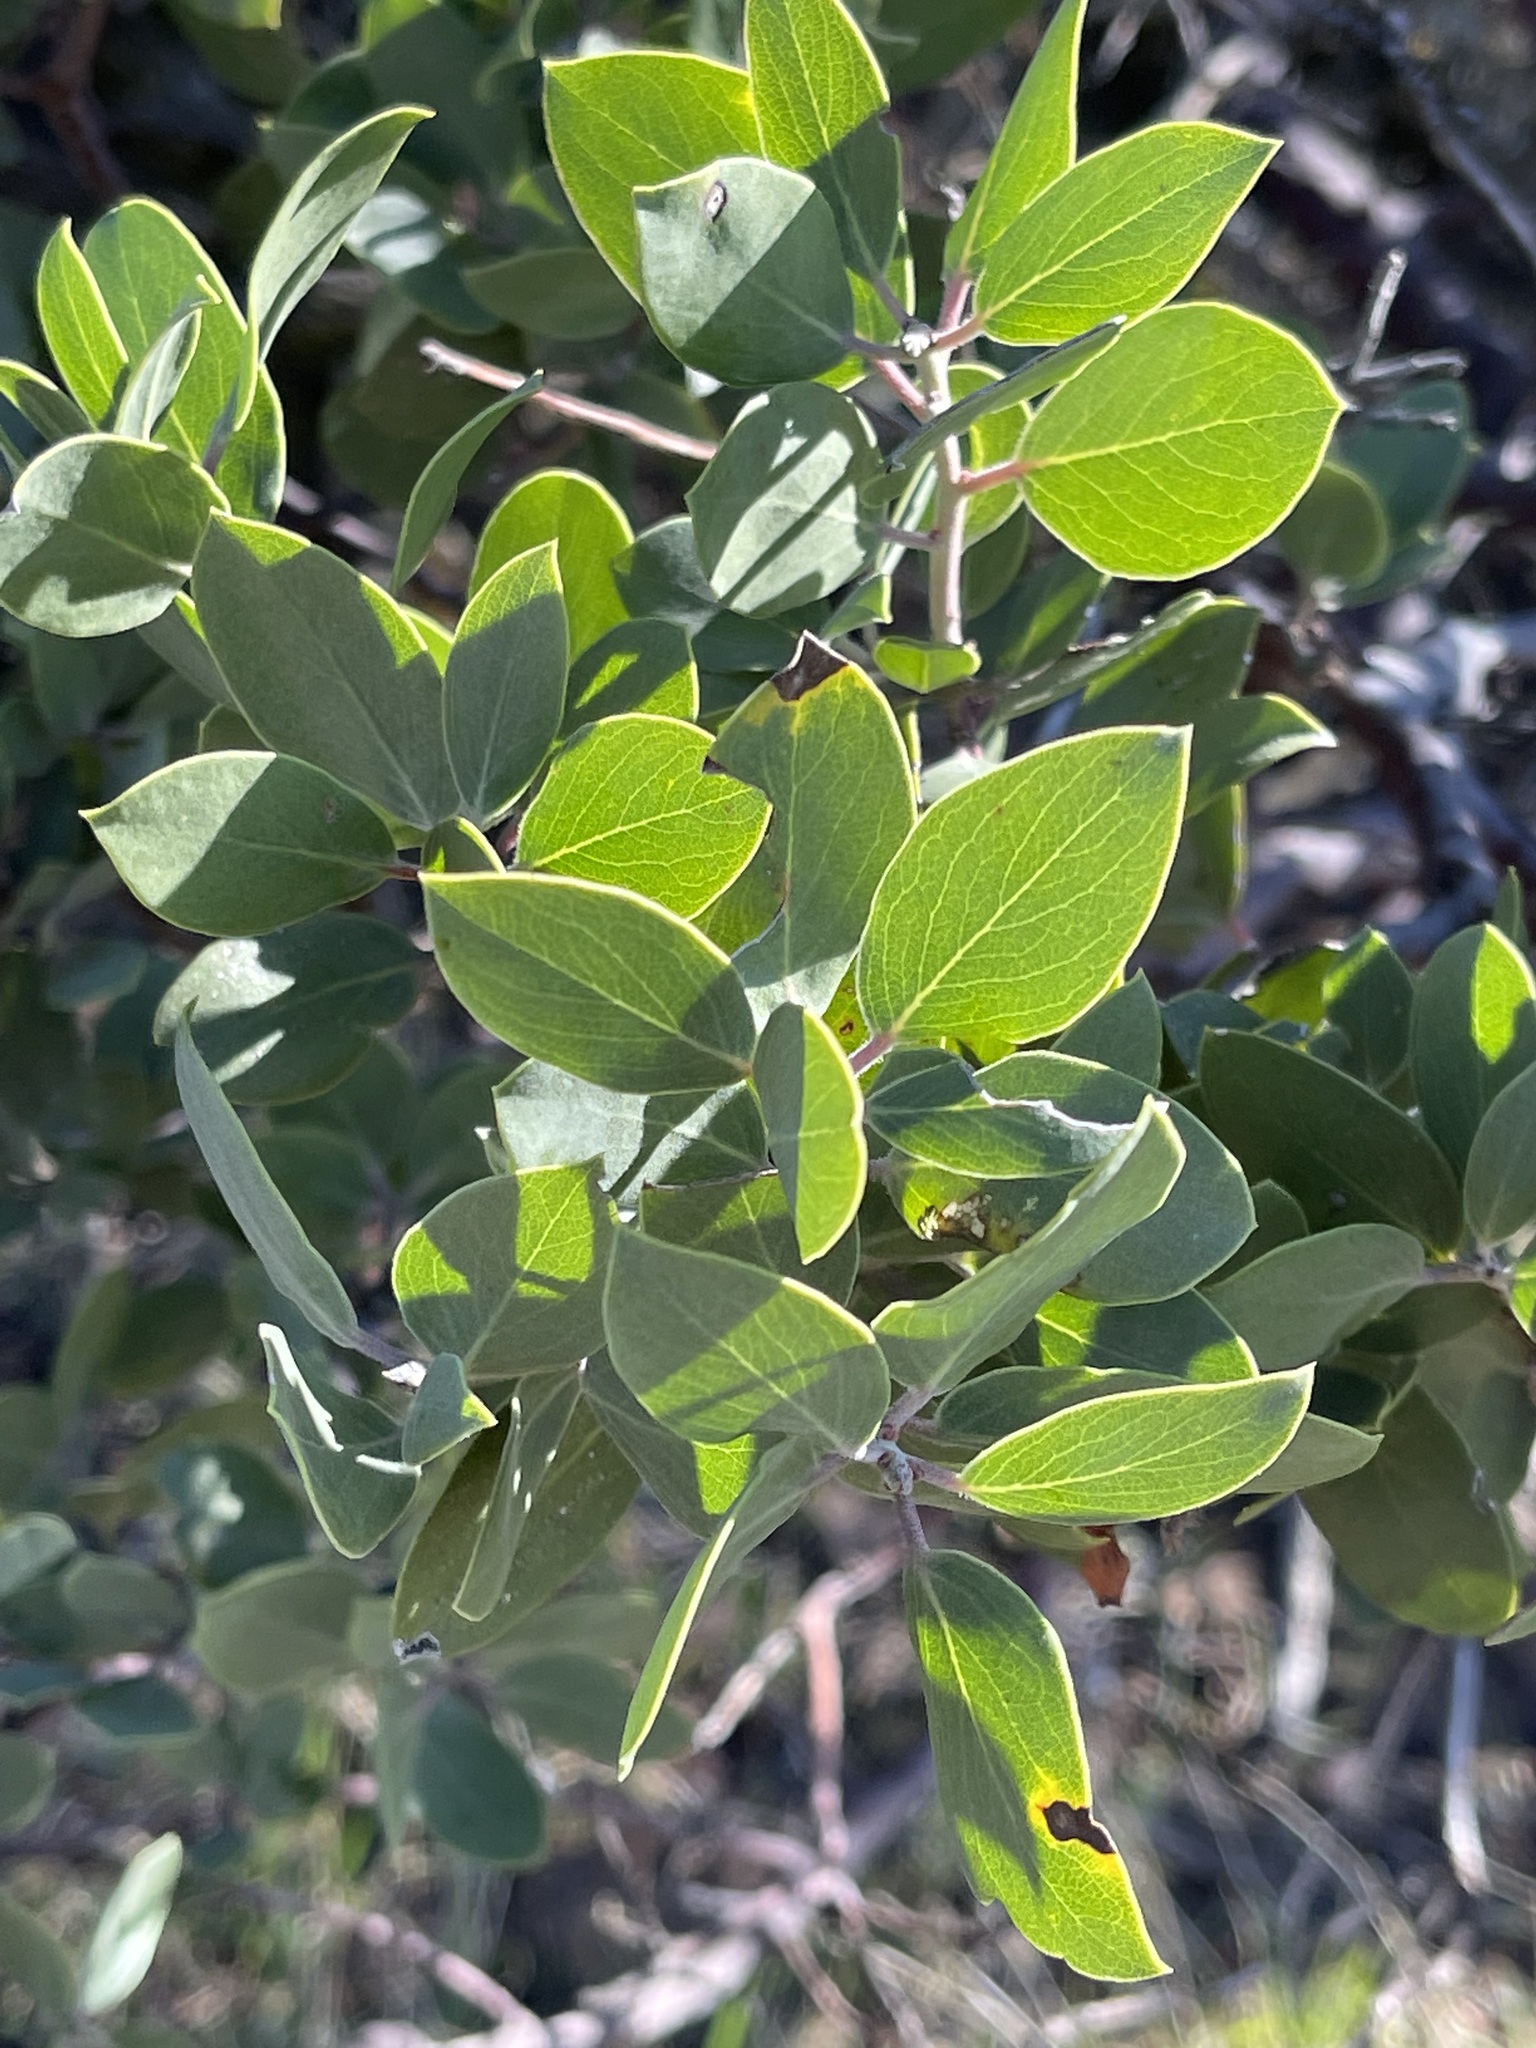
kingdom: Plantae
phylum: Tracheophyta
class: Magnoliopsida
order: Ericales
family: Ericaceae
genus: Arctostaphylos
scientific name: Arctostaphylos manzanita
